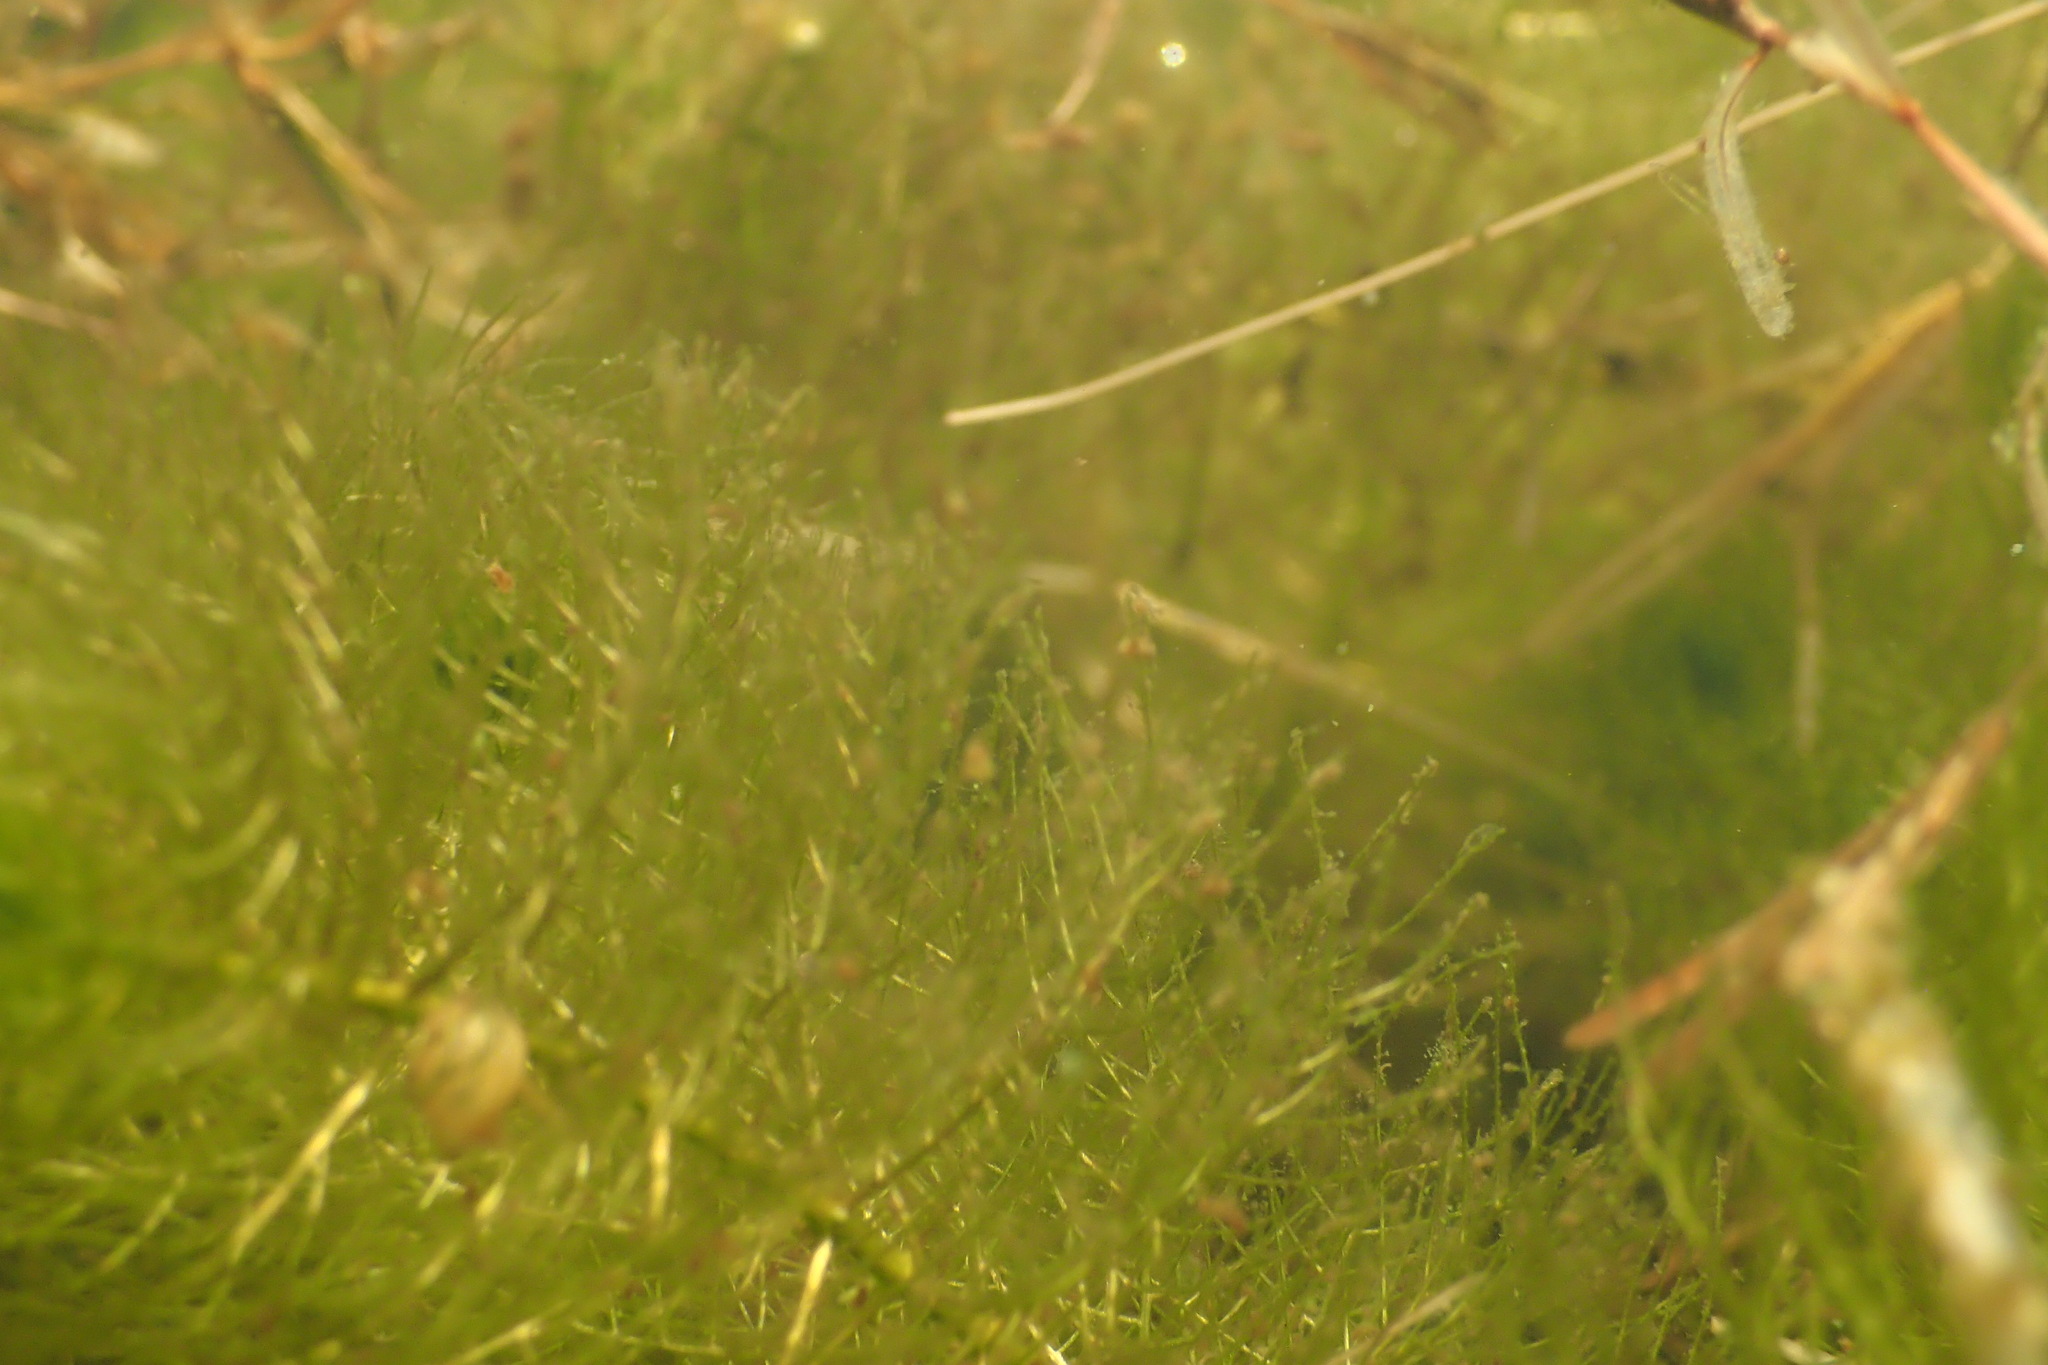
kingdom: Plantae
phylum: Tracheophyta
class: Magnoliopsida
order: Saxifragales
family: Haloragaceae
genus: Myriophyllum
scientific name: Myriophyllum sibiricum
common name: Siberian water-milfoil
